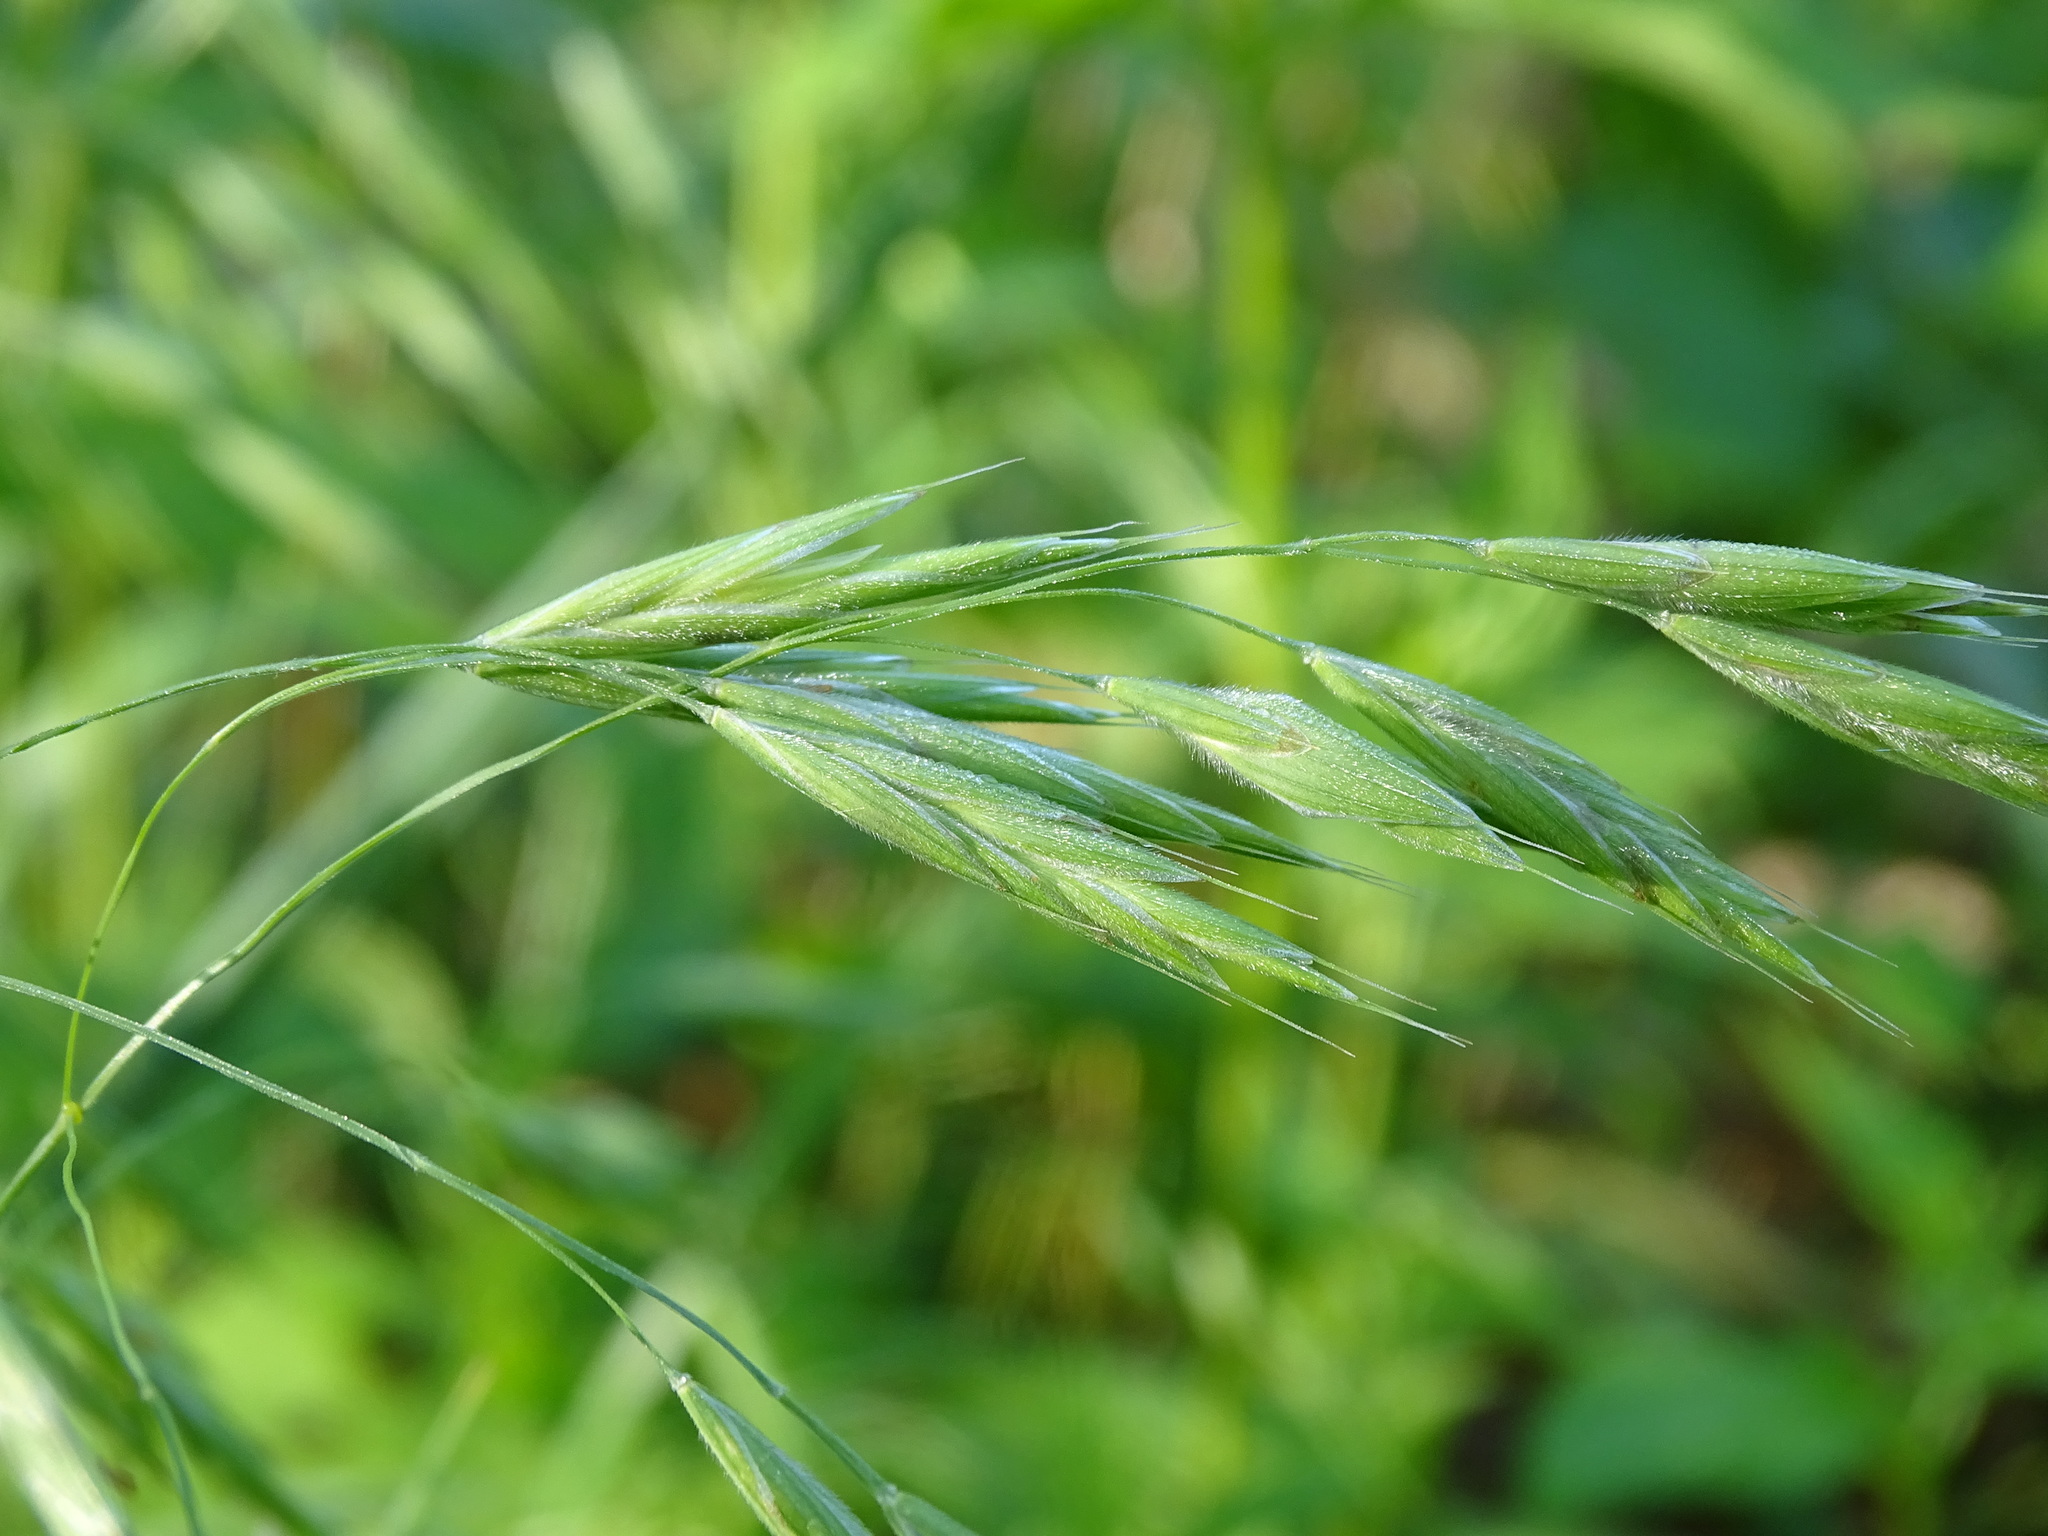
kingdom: Plantae
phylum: Tracheophyta
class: Liliopsida
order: Poales
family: Poaceae
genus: Bromus
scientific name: Bromus latiglumis
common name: Broad-glumed brome
